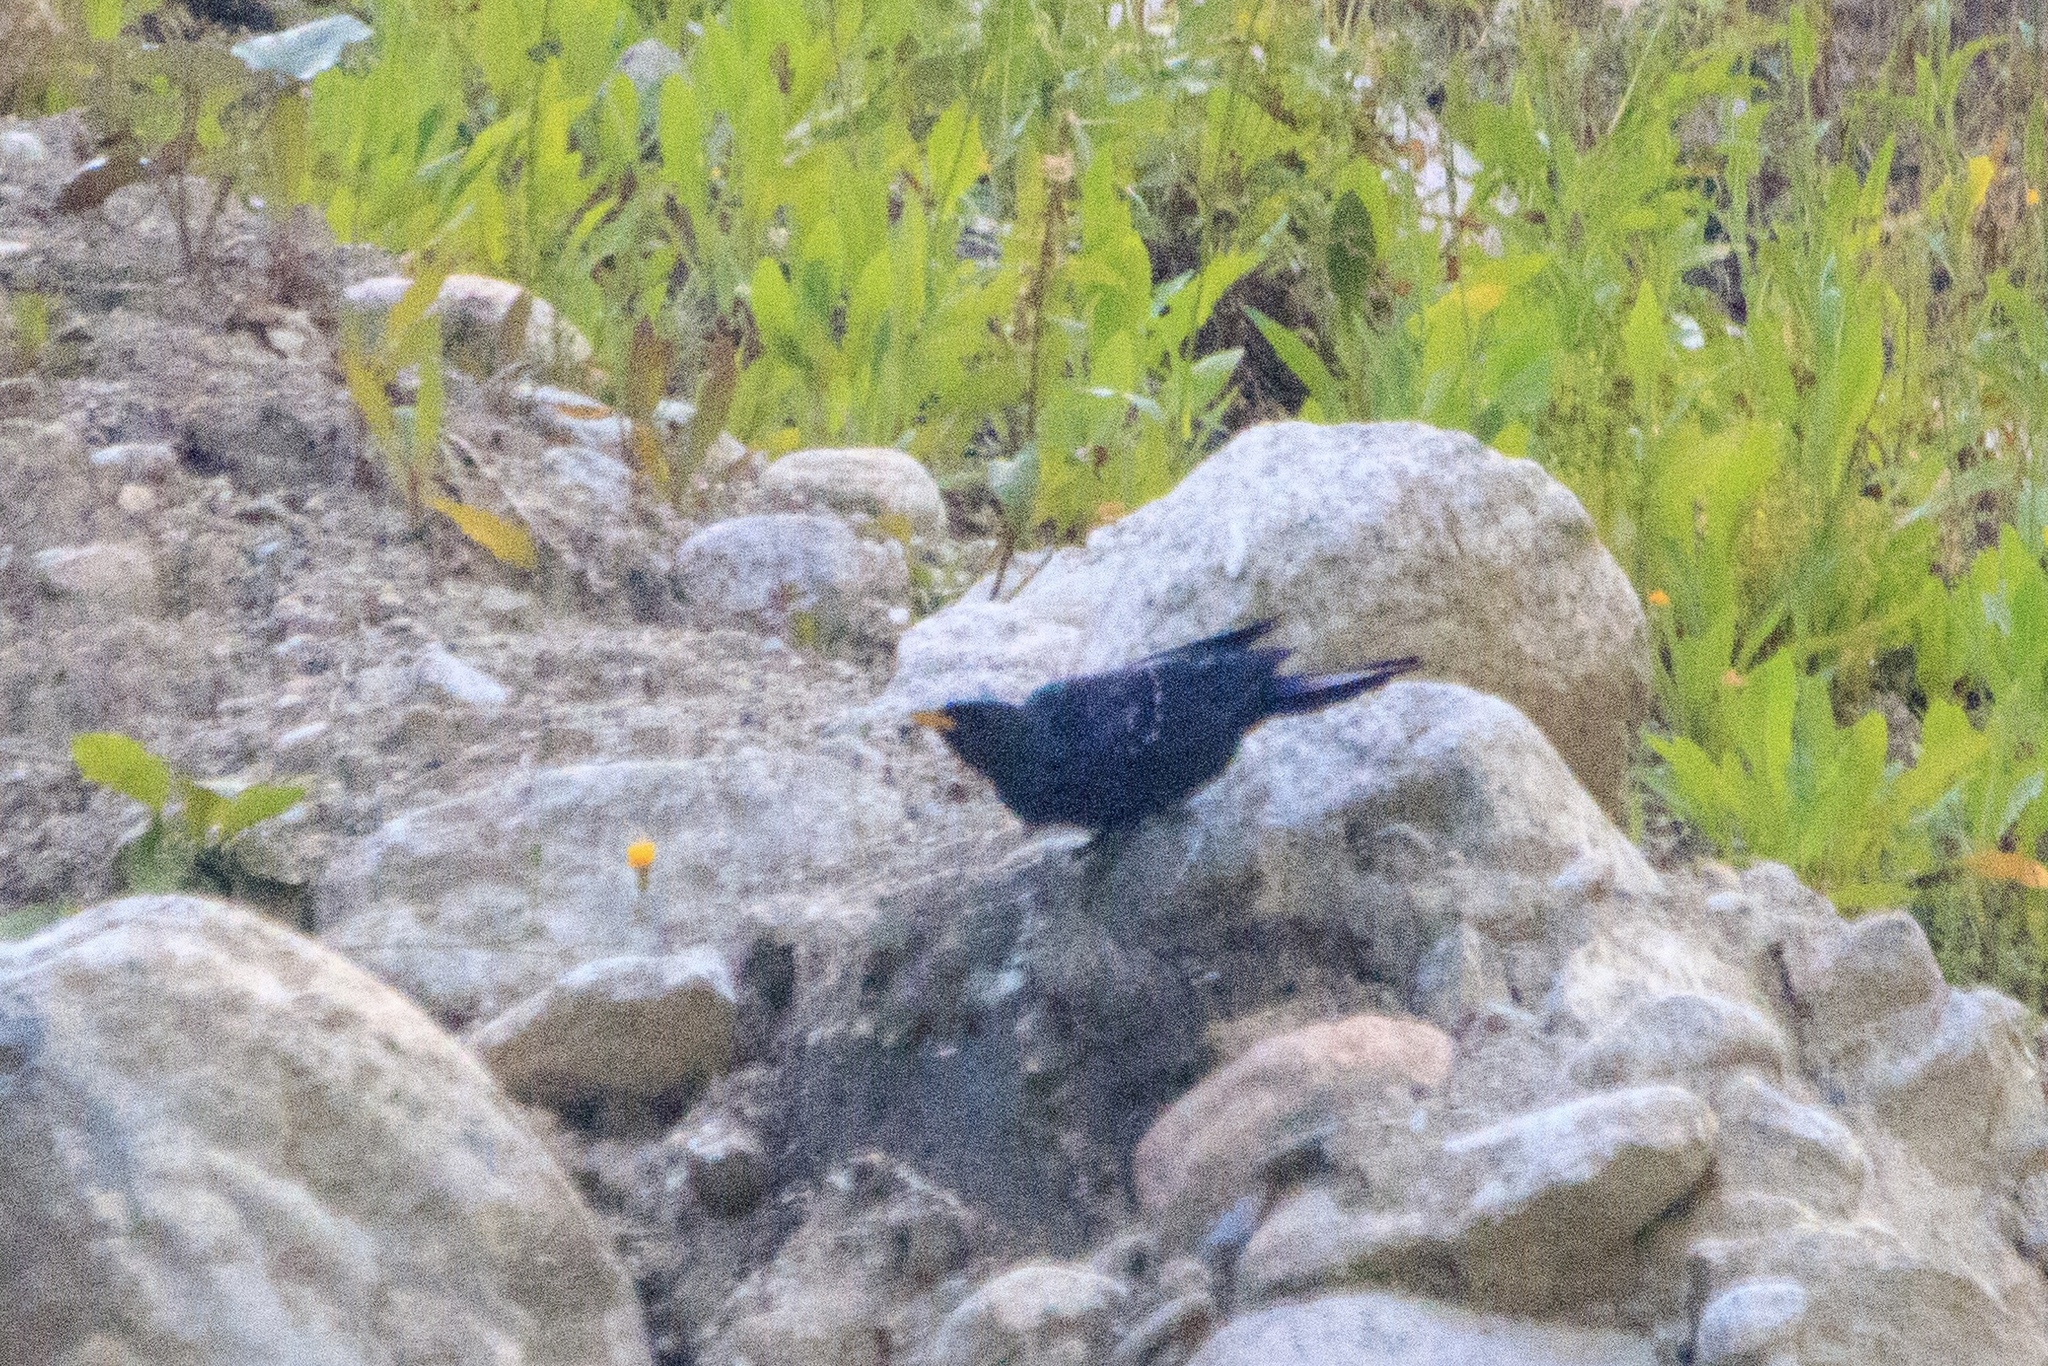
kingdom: Animalia
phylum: Chordata
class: Aves
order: Passeriformes
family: Muscicapidae
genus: Myophonus
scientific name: Myophonus caeruleus
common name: Blue whistling-thrush
